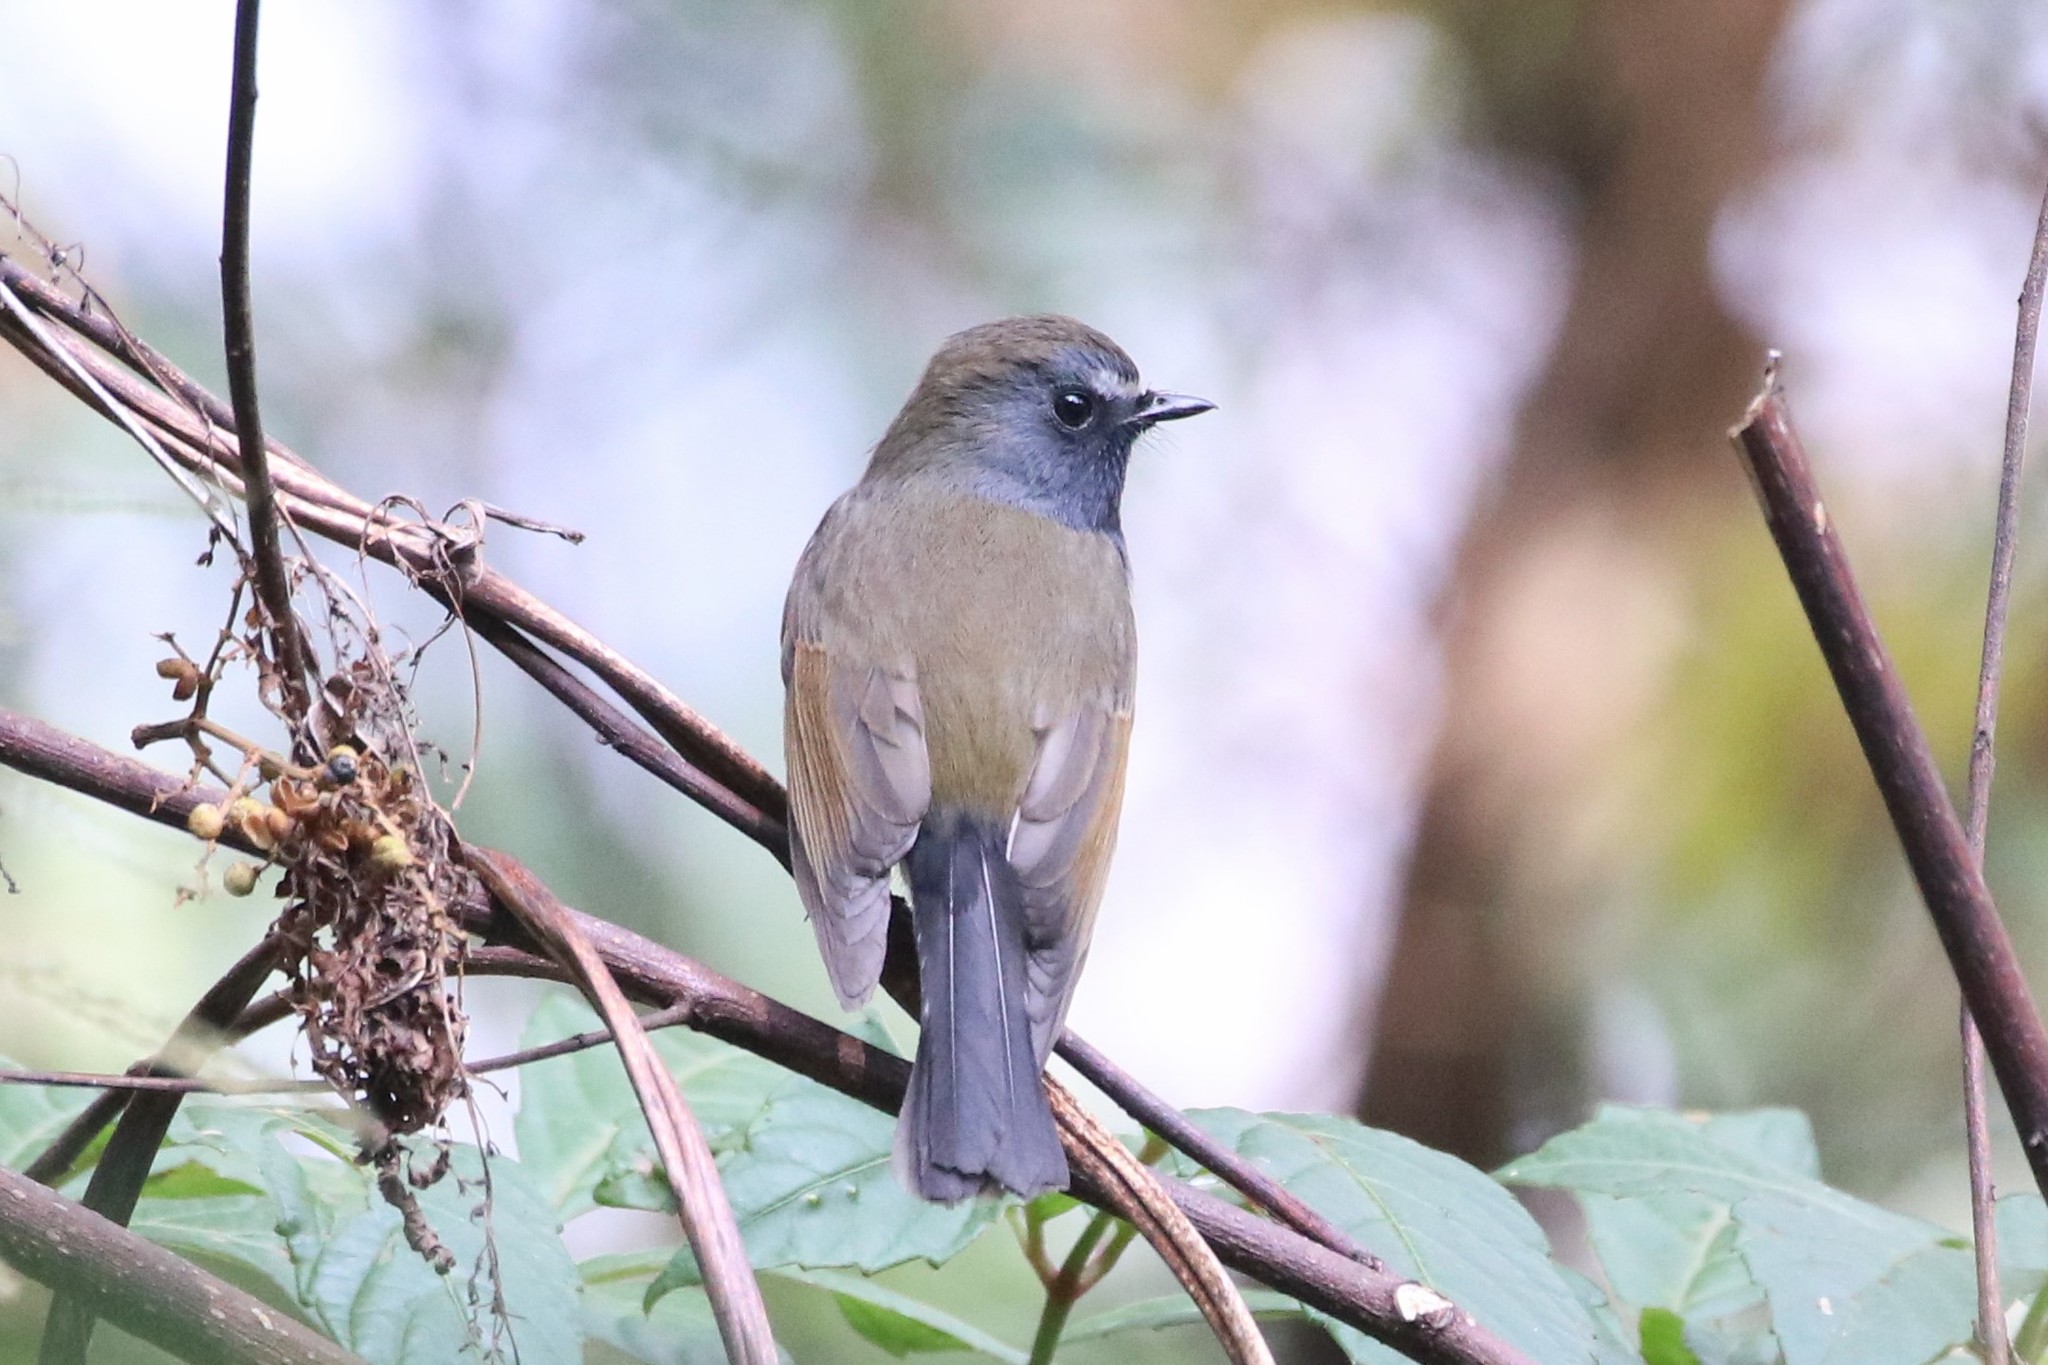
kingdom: Animalia
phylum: Chordata
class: Aves
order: Passeriformes
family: Muscicapidae
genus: Ficedula
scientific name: Ficedula strophiata
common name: Rufous-gorgeted flycatcher
